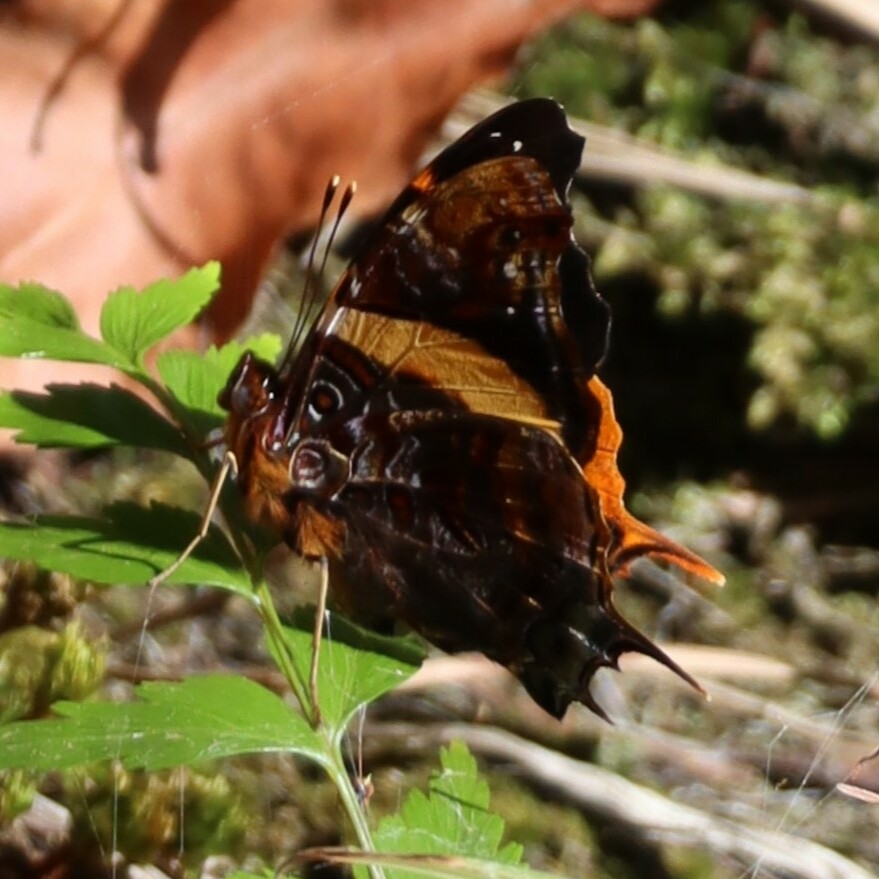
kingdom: Animalia
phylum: Arthropoda
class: Insecta
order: Lepidoptera
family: Nymphalidae
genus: Antanartia
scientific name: Antanartia schaeneia
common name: Long-tailed admiral
